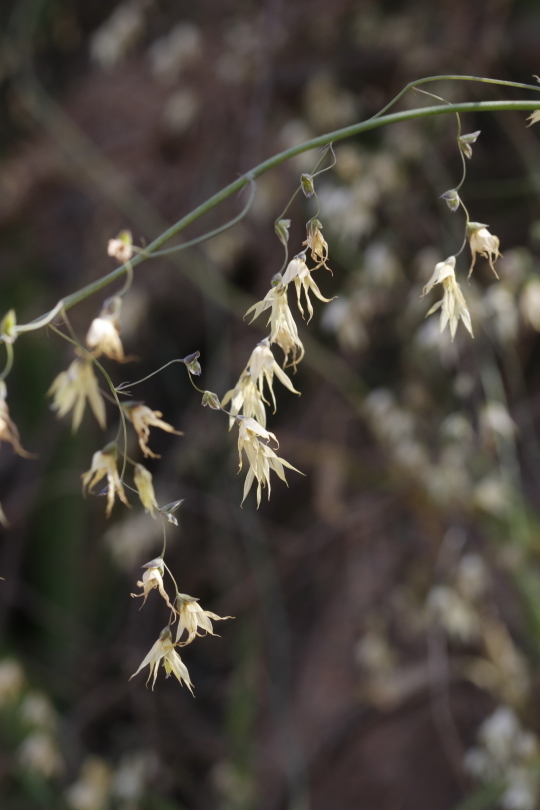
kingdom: Plantae
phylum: Tracheophyta
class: Liliopsida
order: Asparagales
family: Iridaceae
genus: Melasphaerula
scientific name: Melasphaerula graminea
